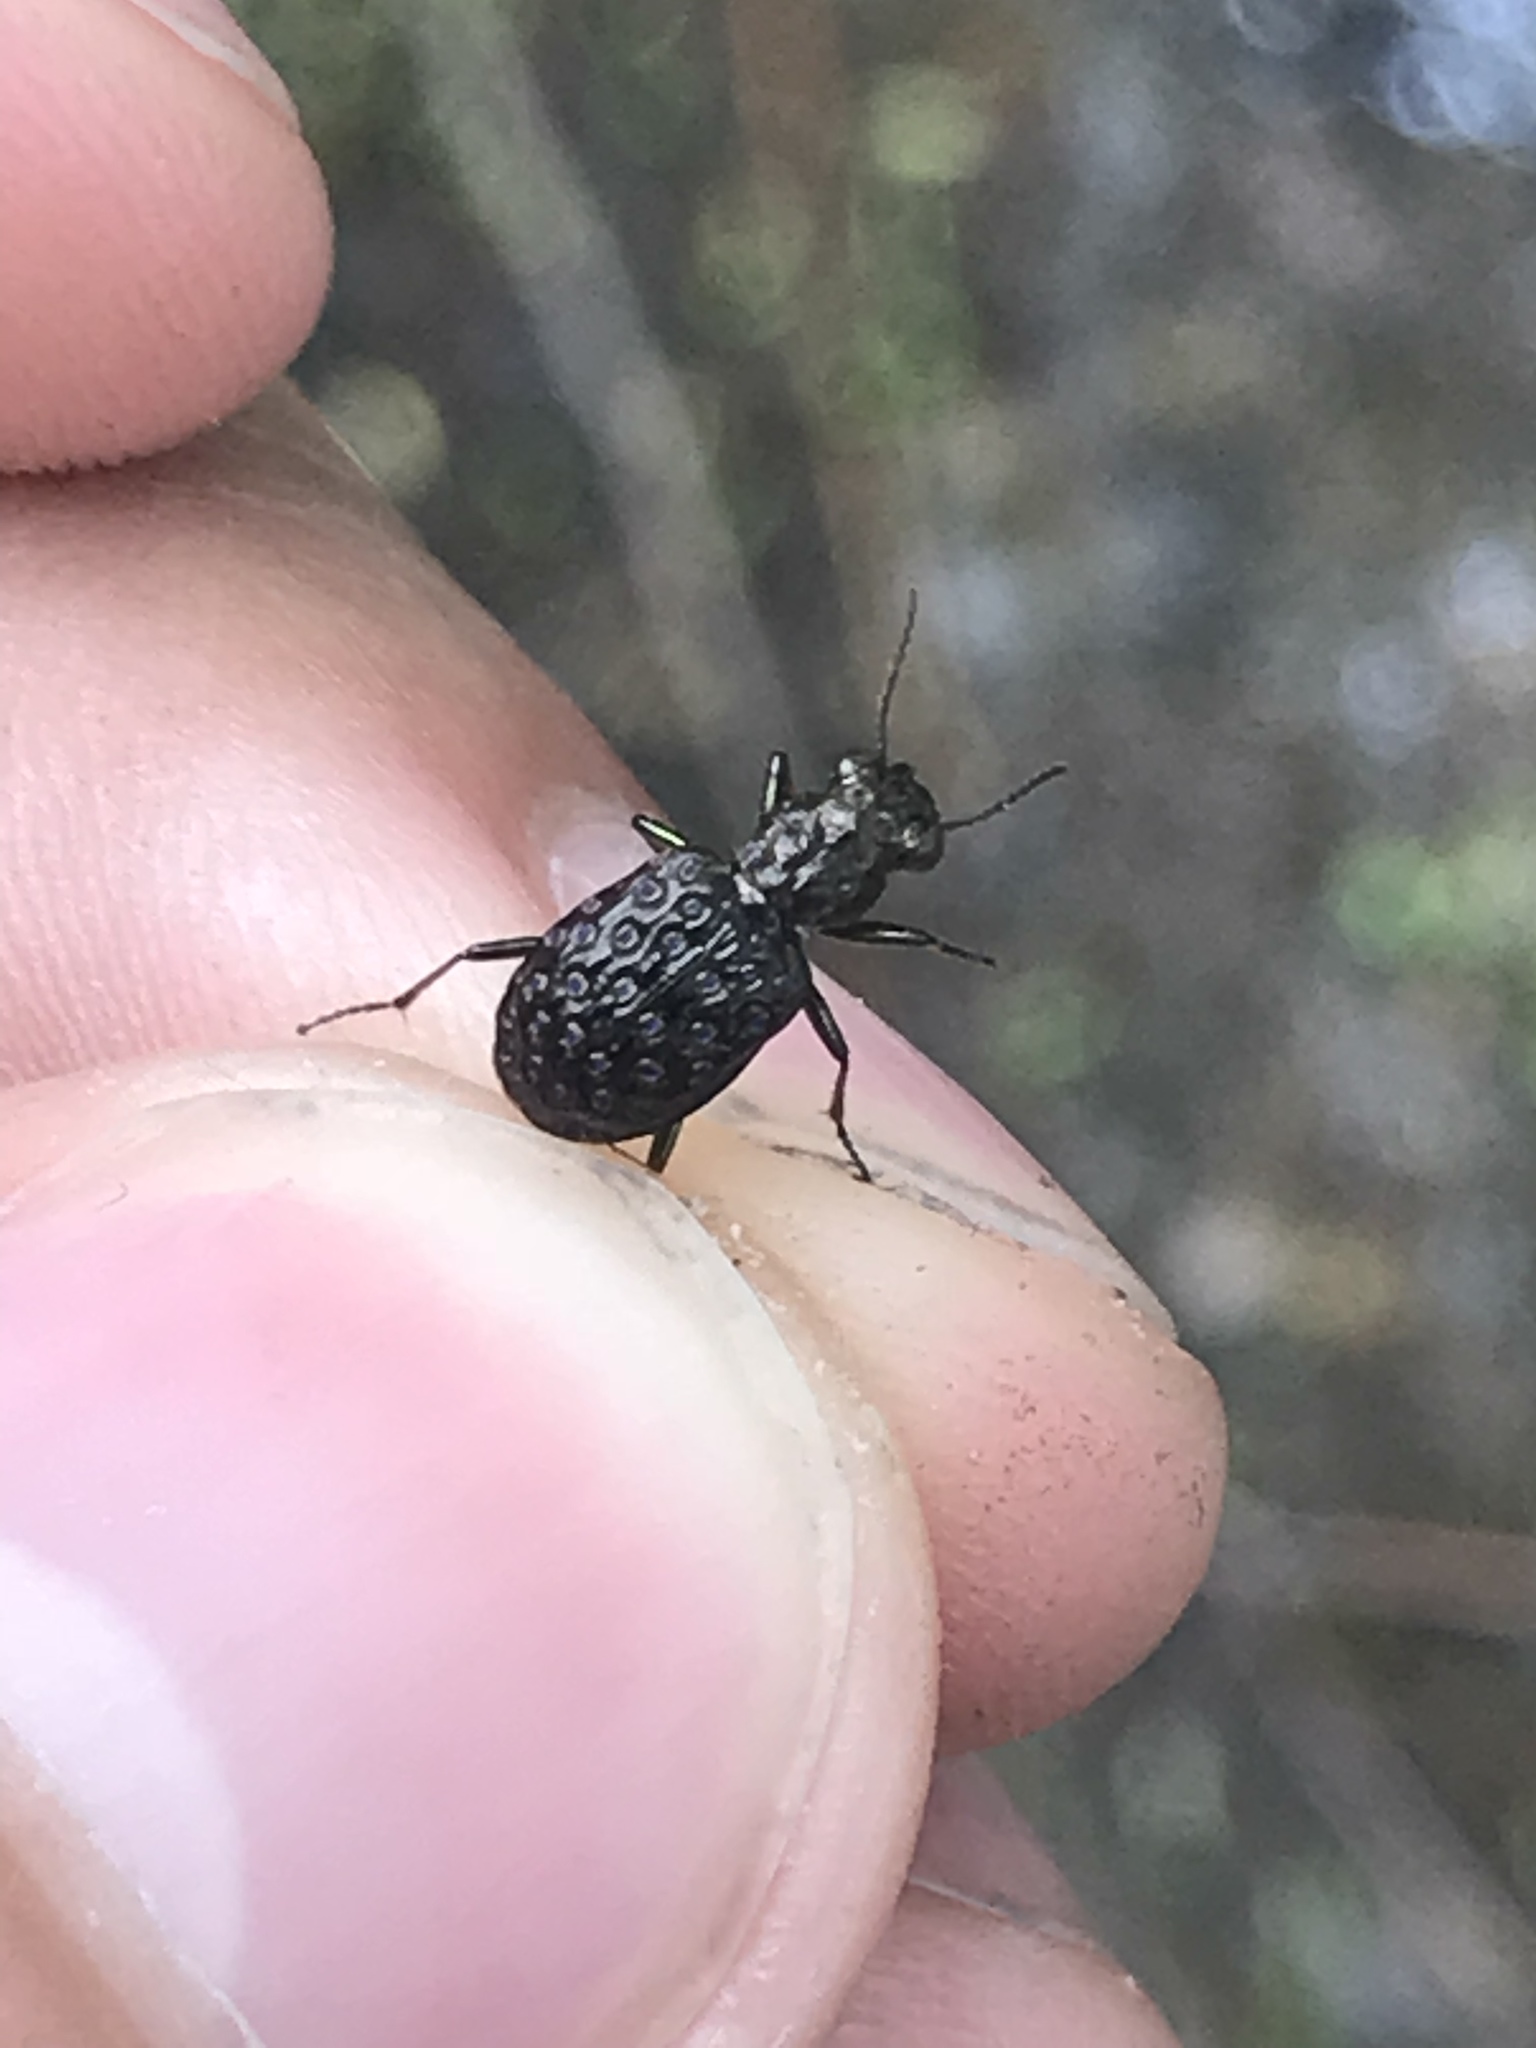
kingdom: Animalia
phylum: Arthropoda
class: Insecta
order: Coleoptera
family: Carabidae
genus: Elaphrus
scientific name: Elaphrus uliginosus
